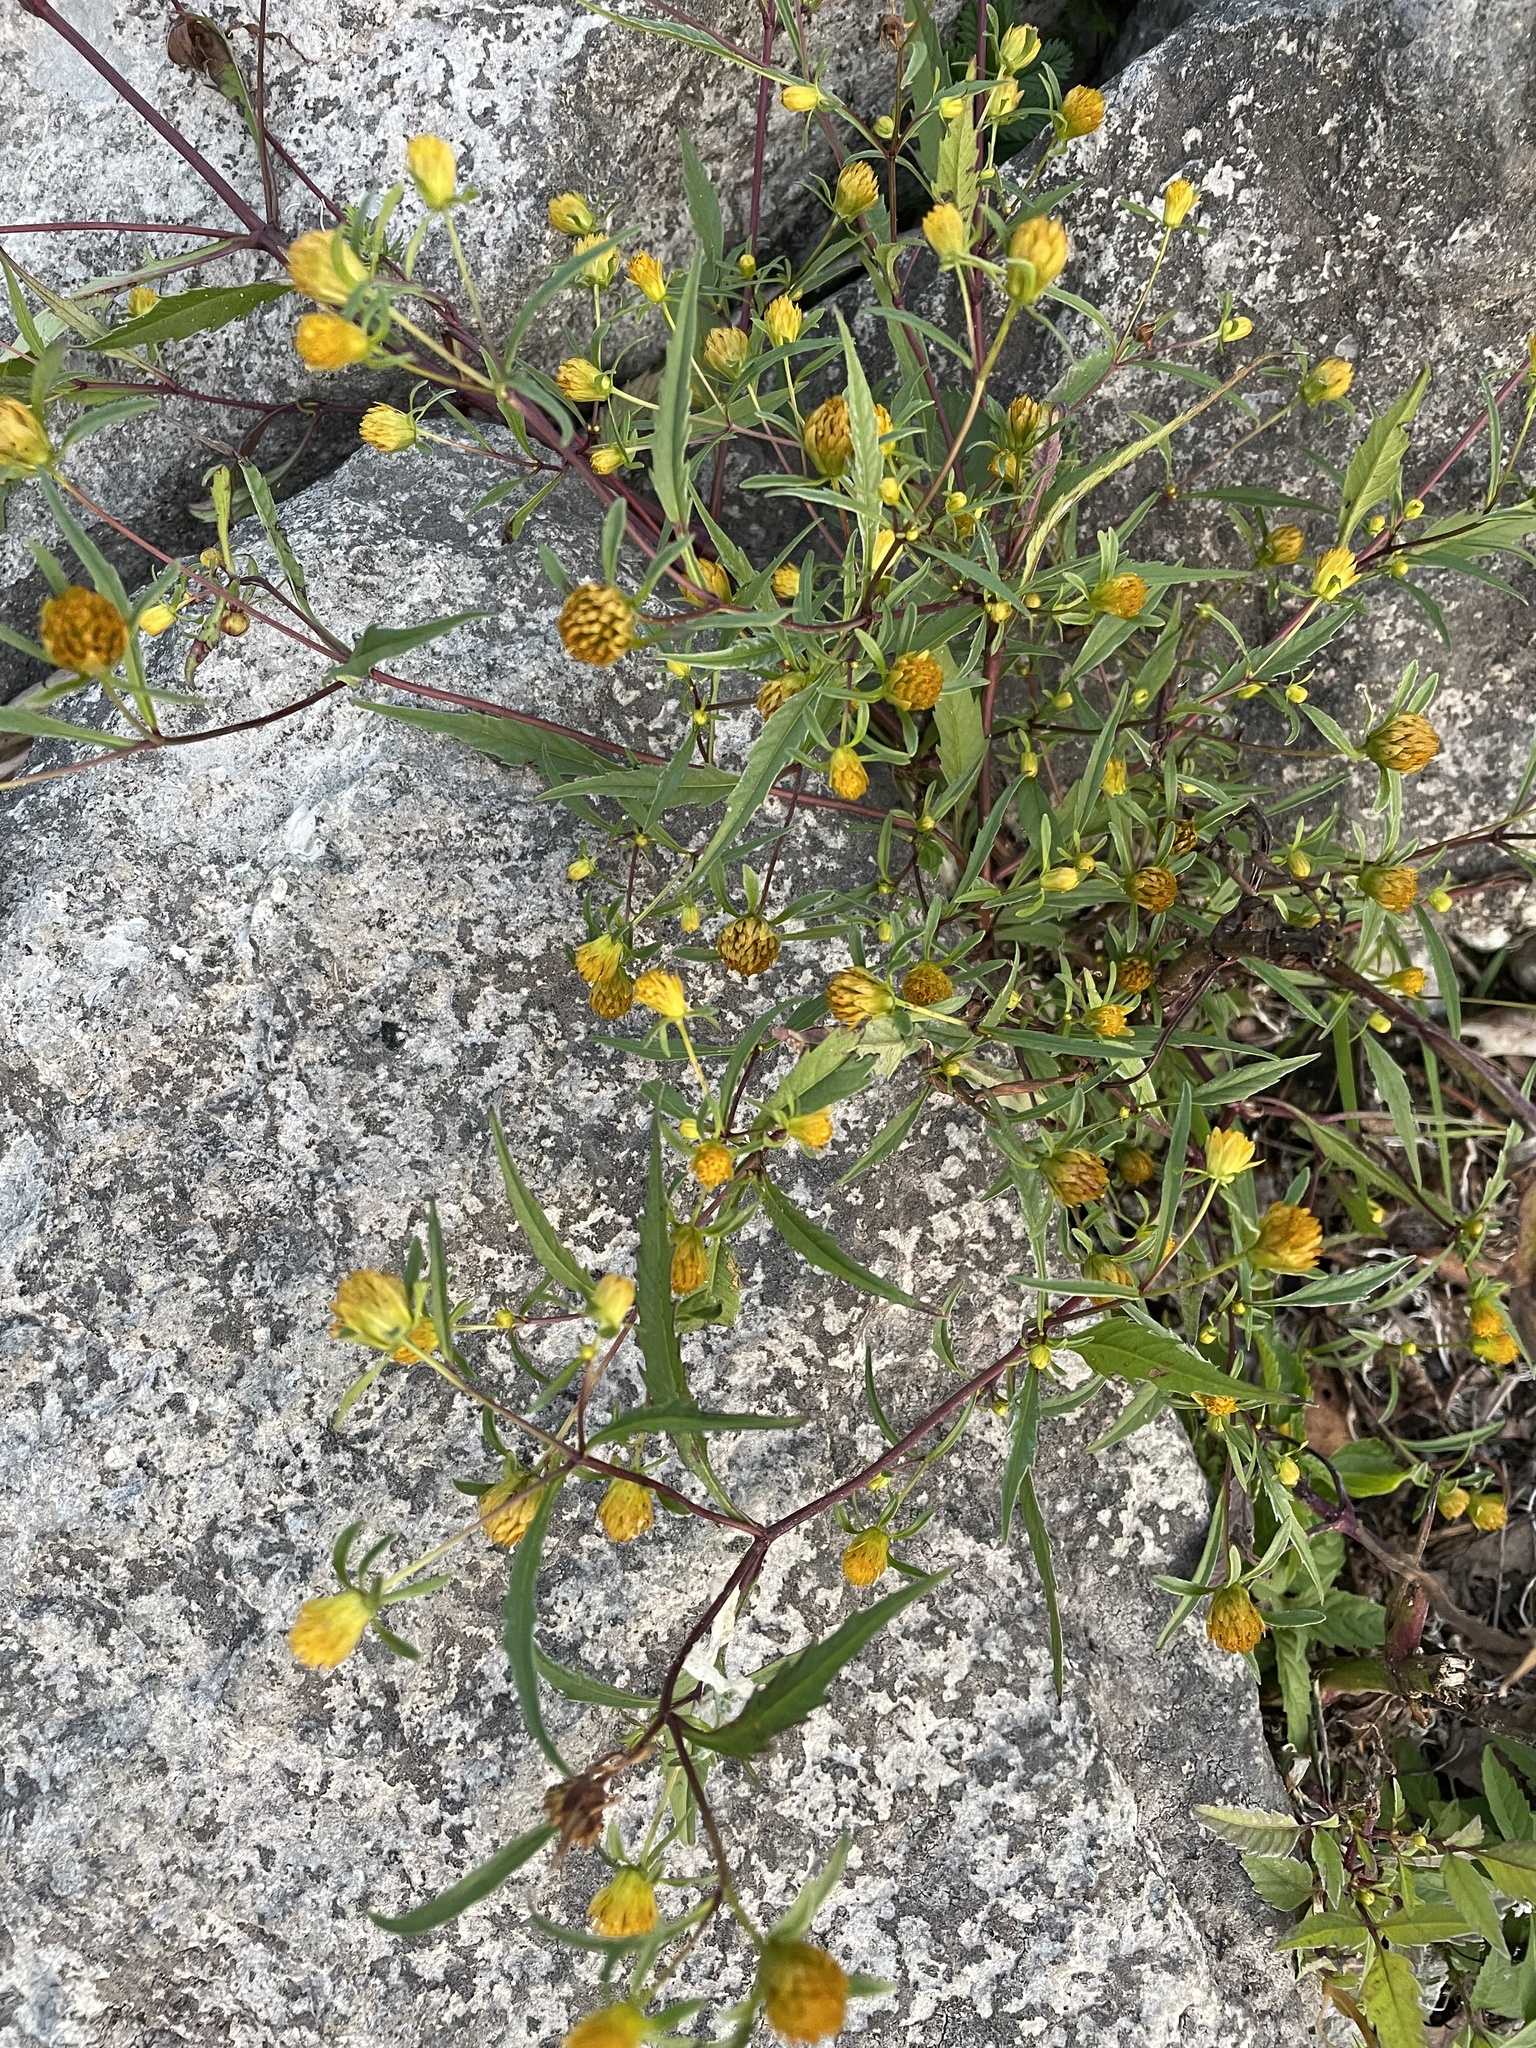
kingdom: Plantae
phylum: Tracheophyta
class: Magnoliopsida
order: Asterales
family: Asteraceae
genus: Bidens
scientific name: Bidens connata
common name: London bur-marigold
